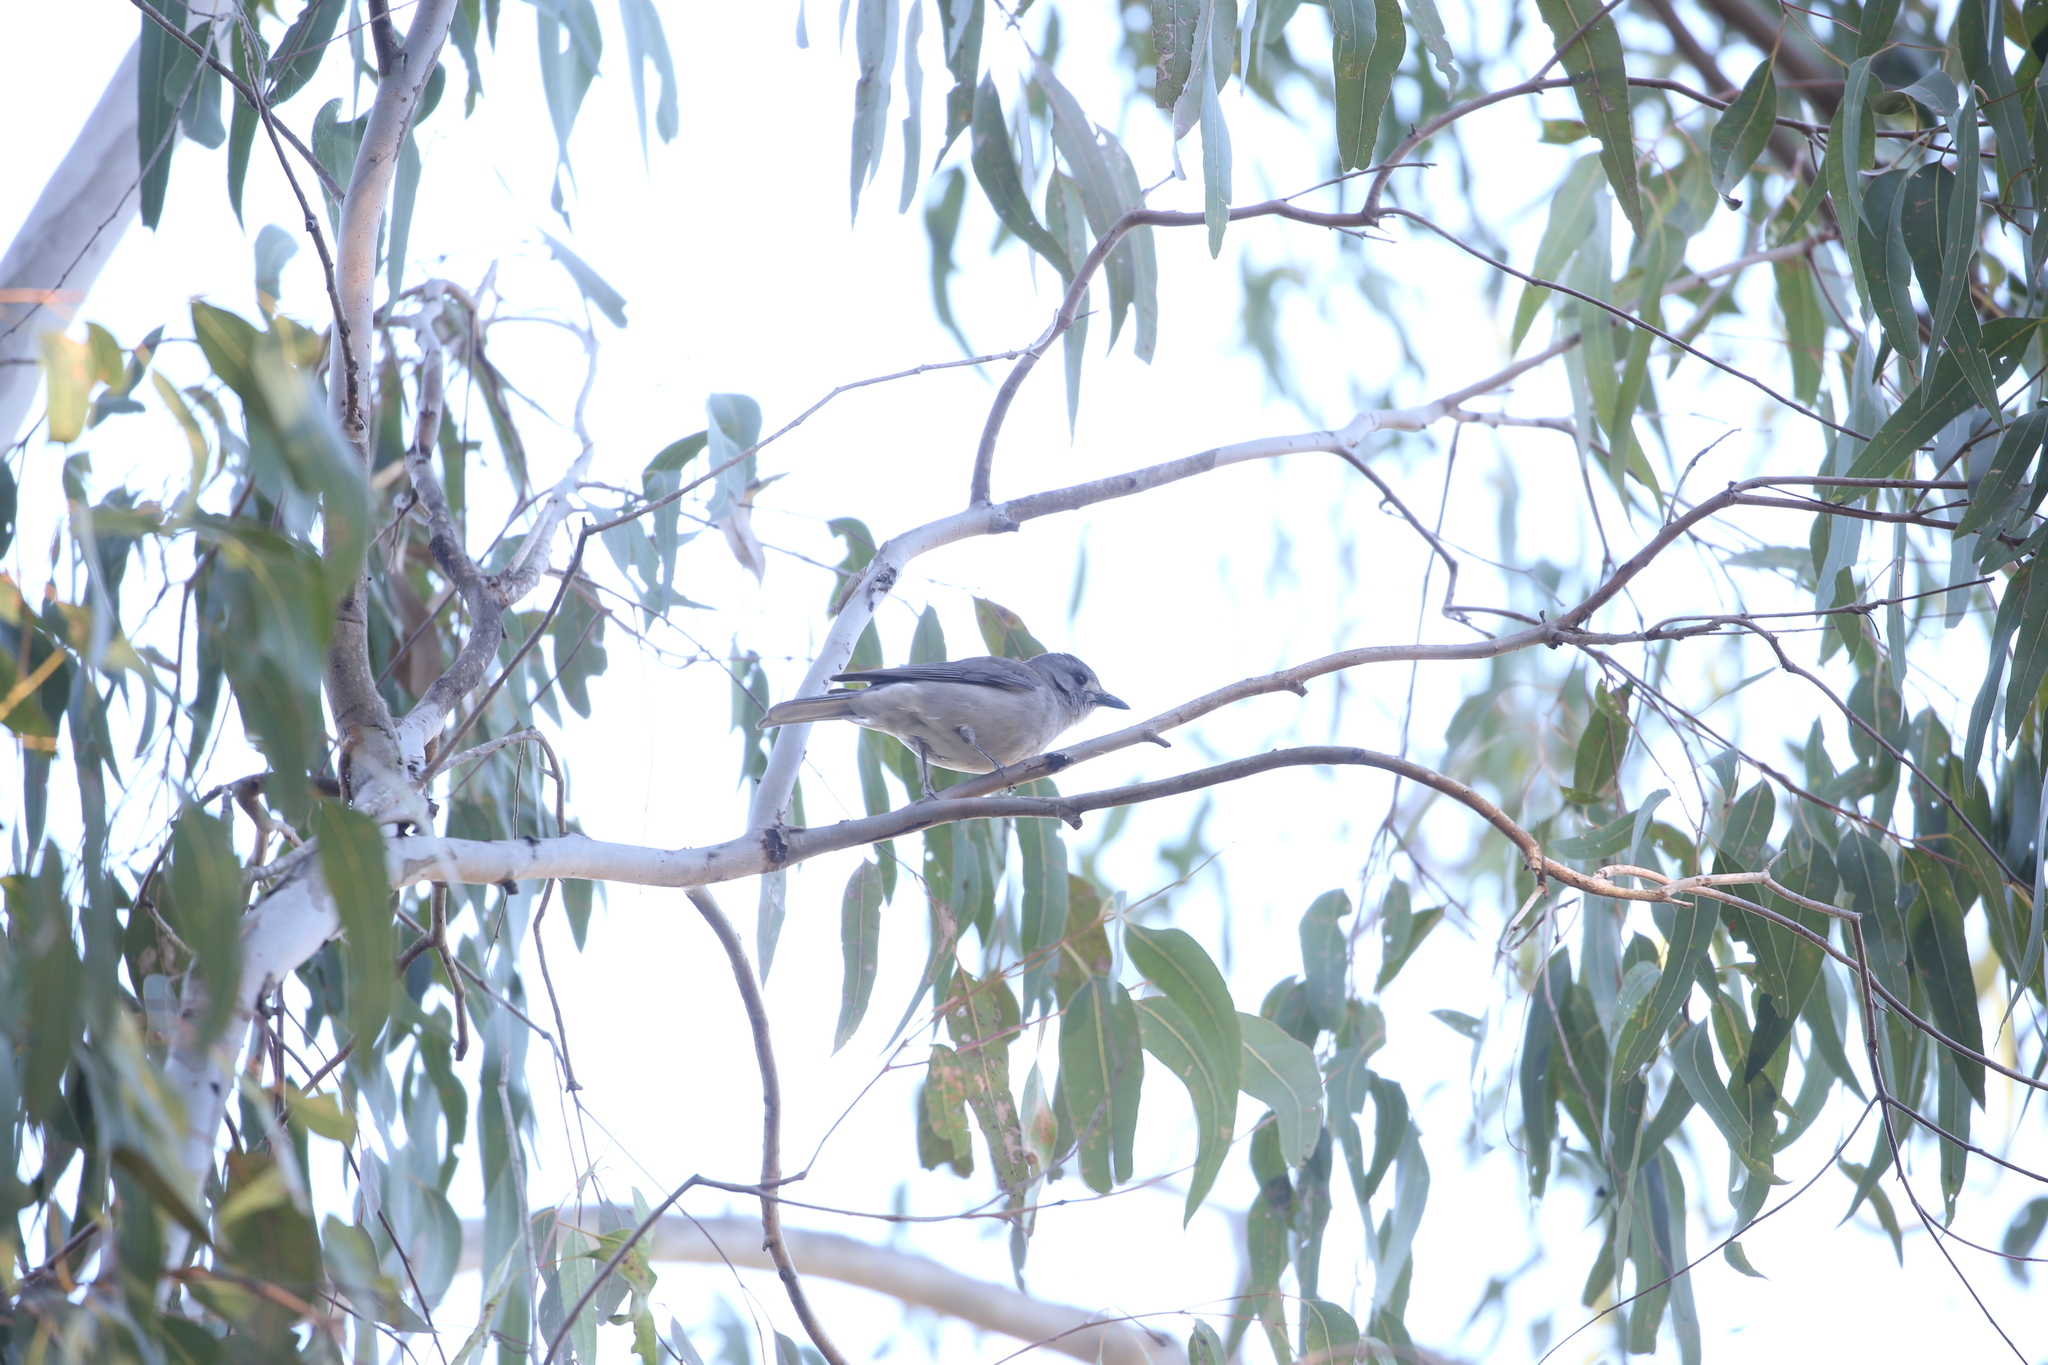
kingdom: Animalia
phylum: Chordata
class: Aves
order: Passeriformes
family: Pachycephalidae
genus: Colluricincla
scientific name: Colluricincla harmonica
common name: Grey shrikethrush
